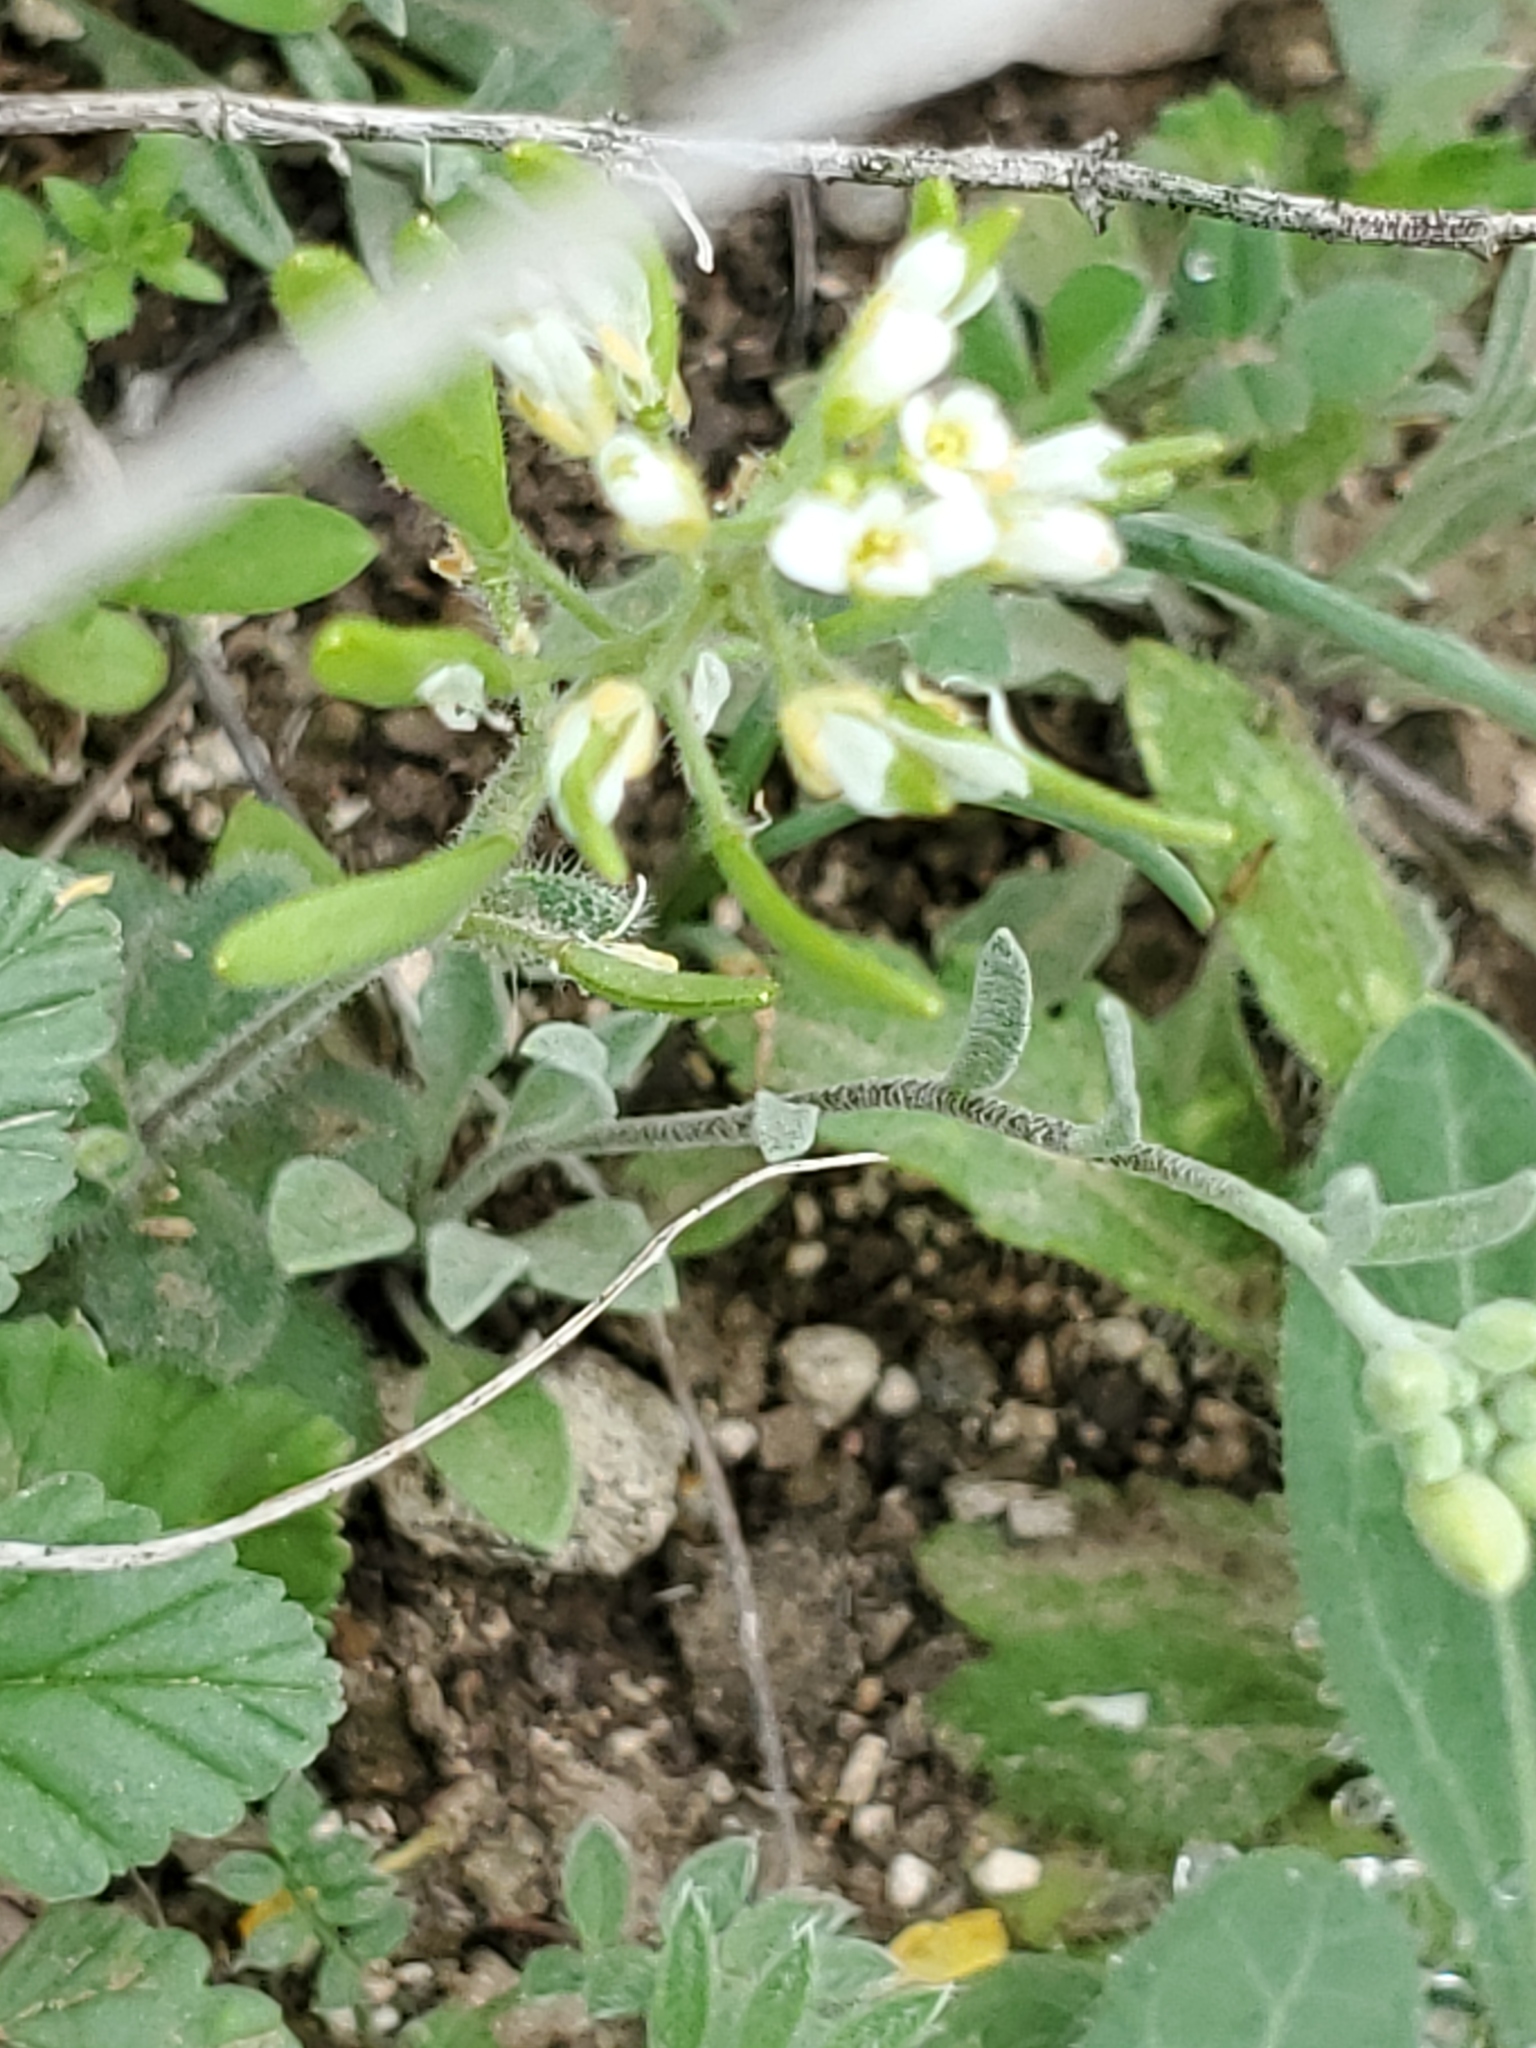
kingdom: Plantae
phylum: Tracheophyta
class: Magnoliopsida
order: Brassicales
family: Brassicaceae
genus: Tomostima
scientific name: Tomostima cuneifolia
